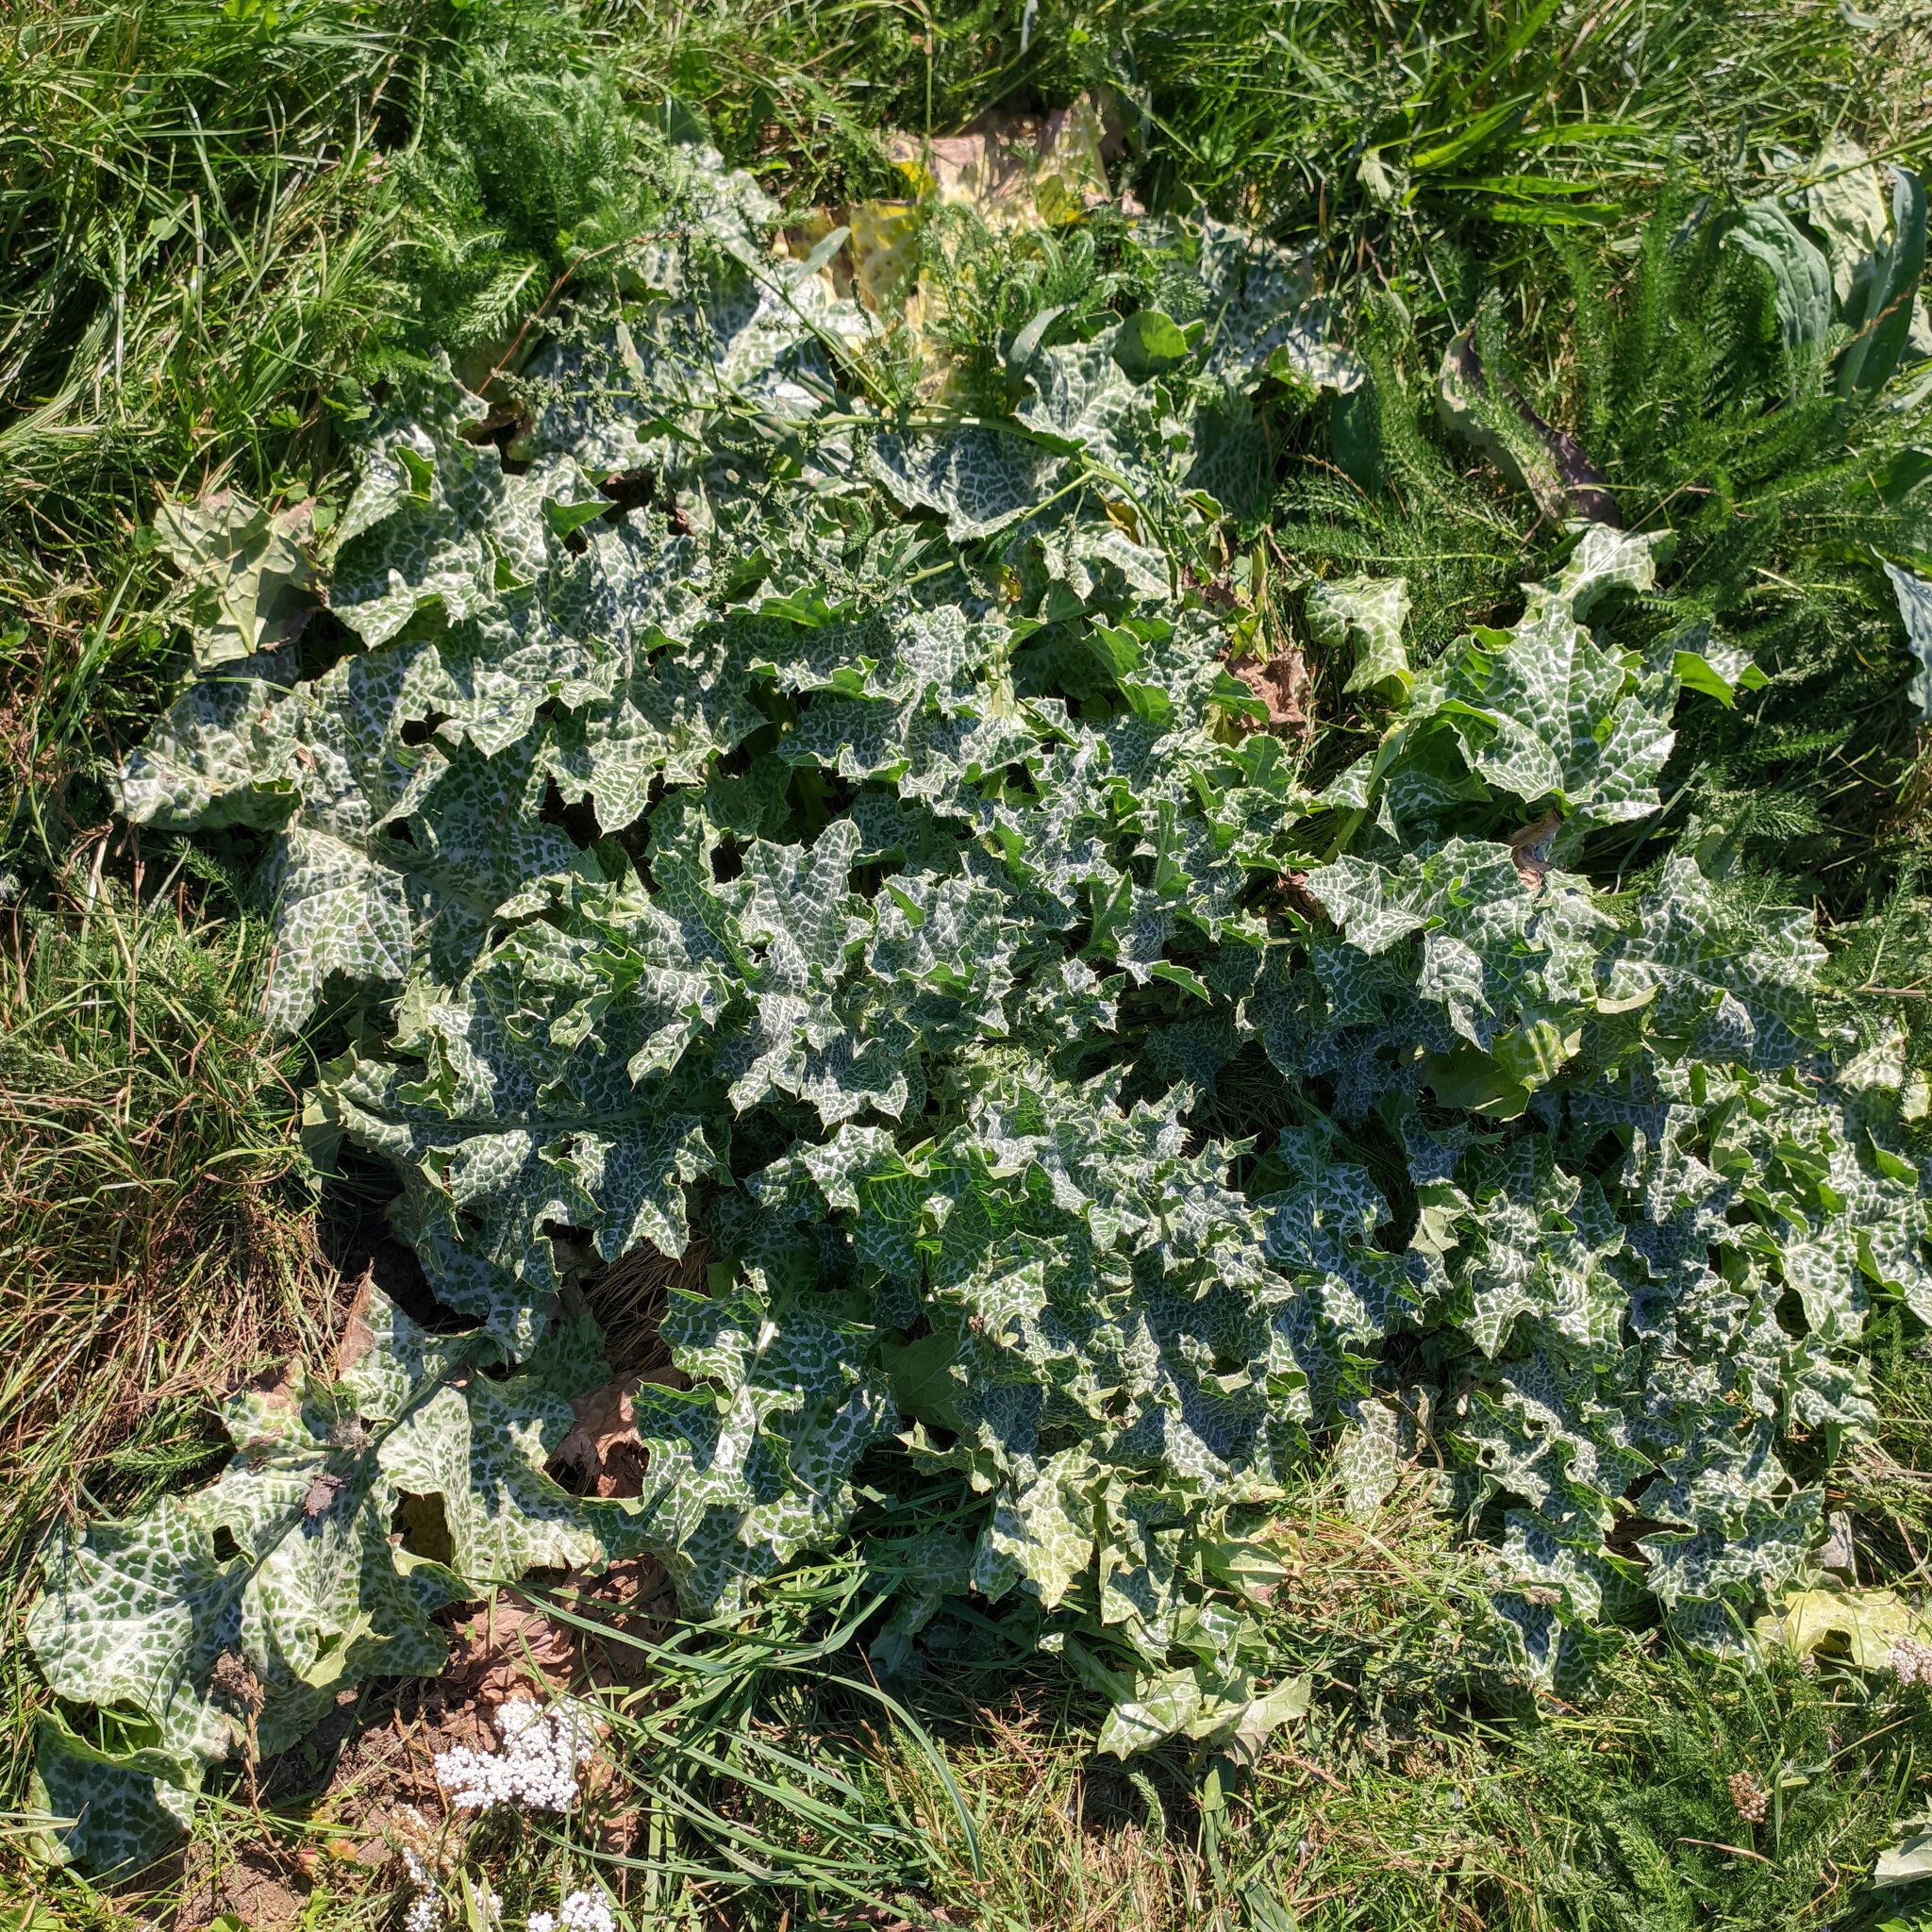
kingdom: Plantae
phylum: Tracheophyta
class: Magnoliopsida
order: Asterales
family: Asteraceae
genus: Silybum
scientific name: Silybum marianum
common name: Milk thistle
